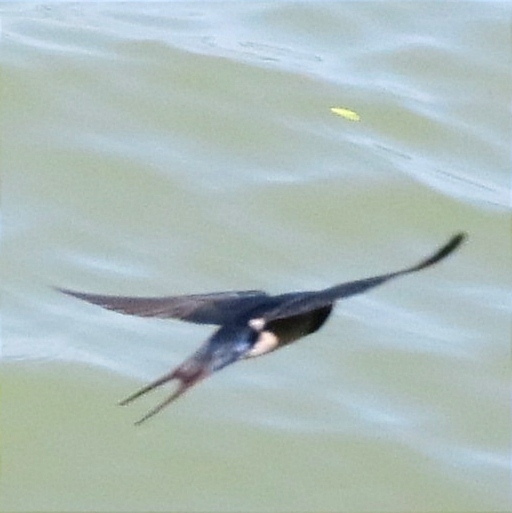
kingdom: Animalia
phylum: Chordata
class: Aves
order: Passeriformes
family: Hirundinidae
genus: Hirundo
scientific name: Hirundo rustica
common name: Barn swallow
